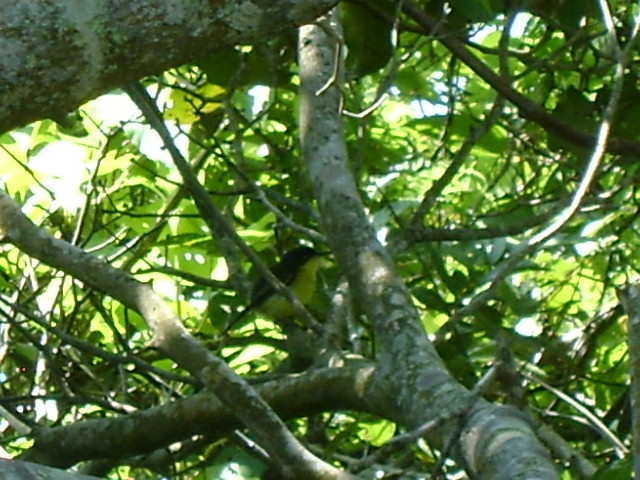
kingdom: Animalia
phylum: Chordata
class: Aves
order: Passeriformes
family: Tyrannidae
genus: Todirostrum
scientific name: Todirostrum cinereum
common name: Common tody-flycatcher
